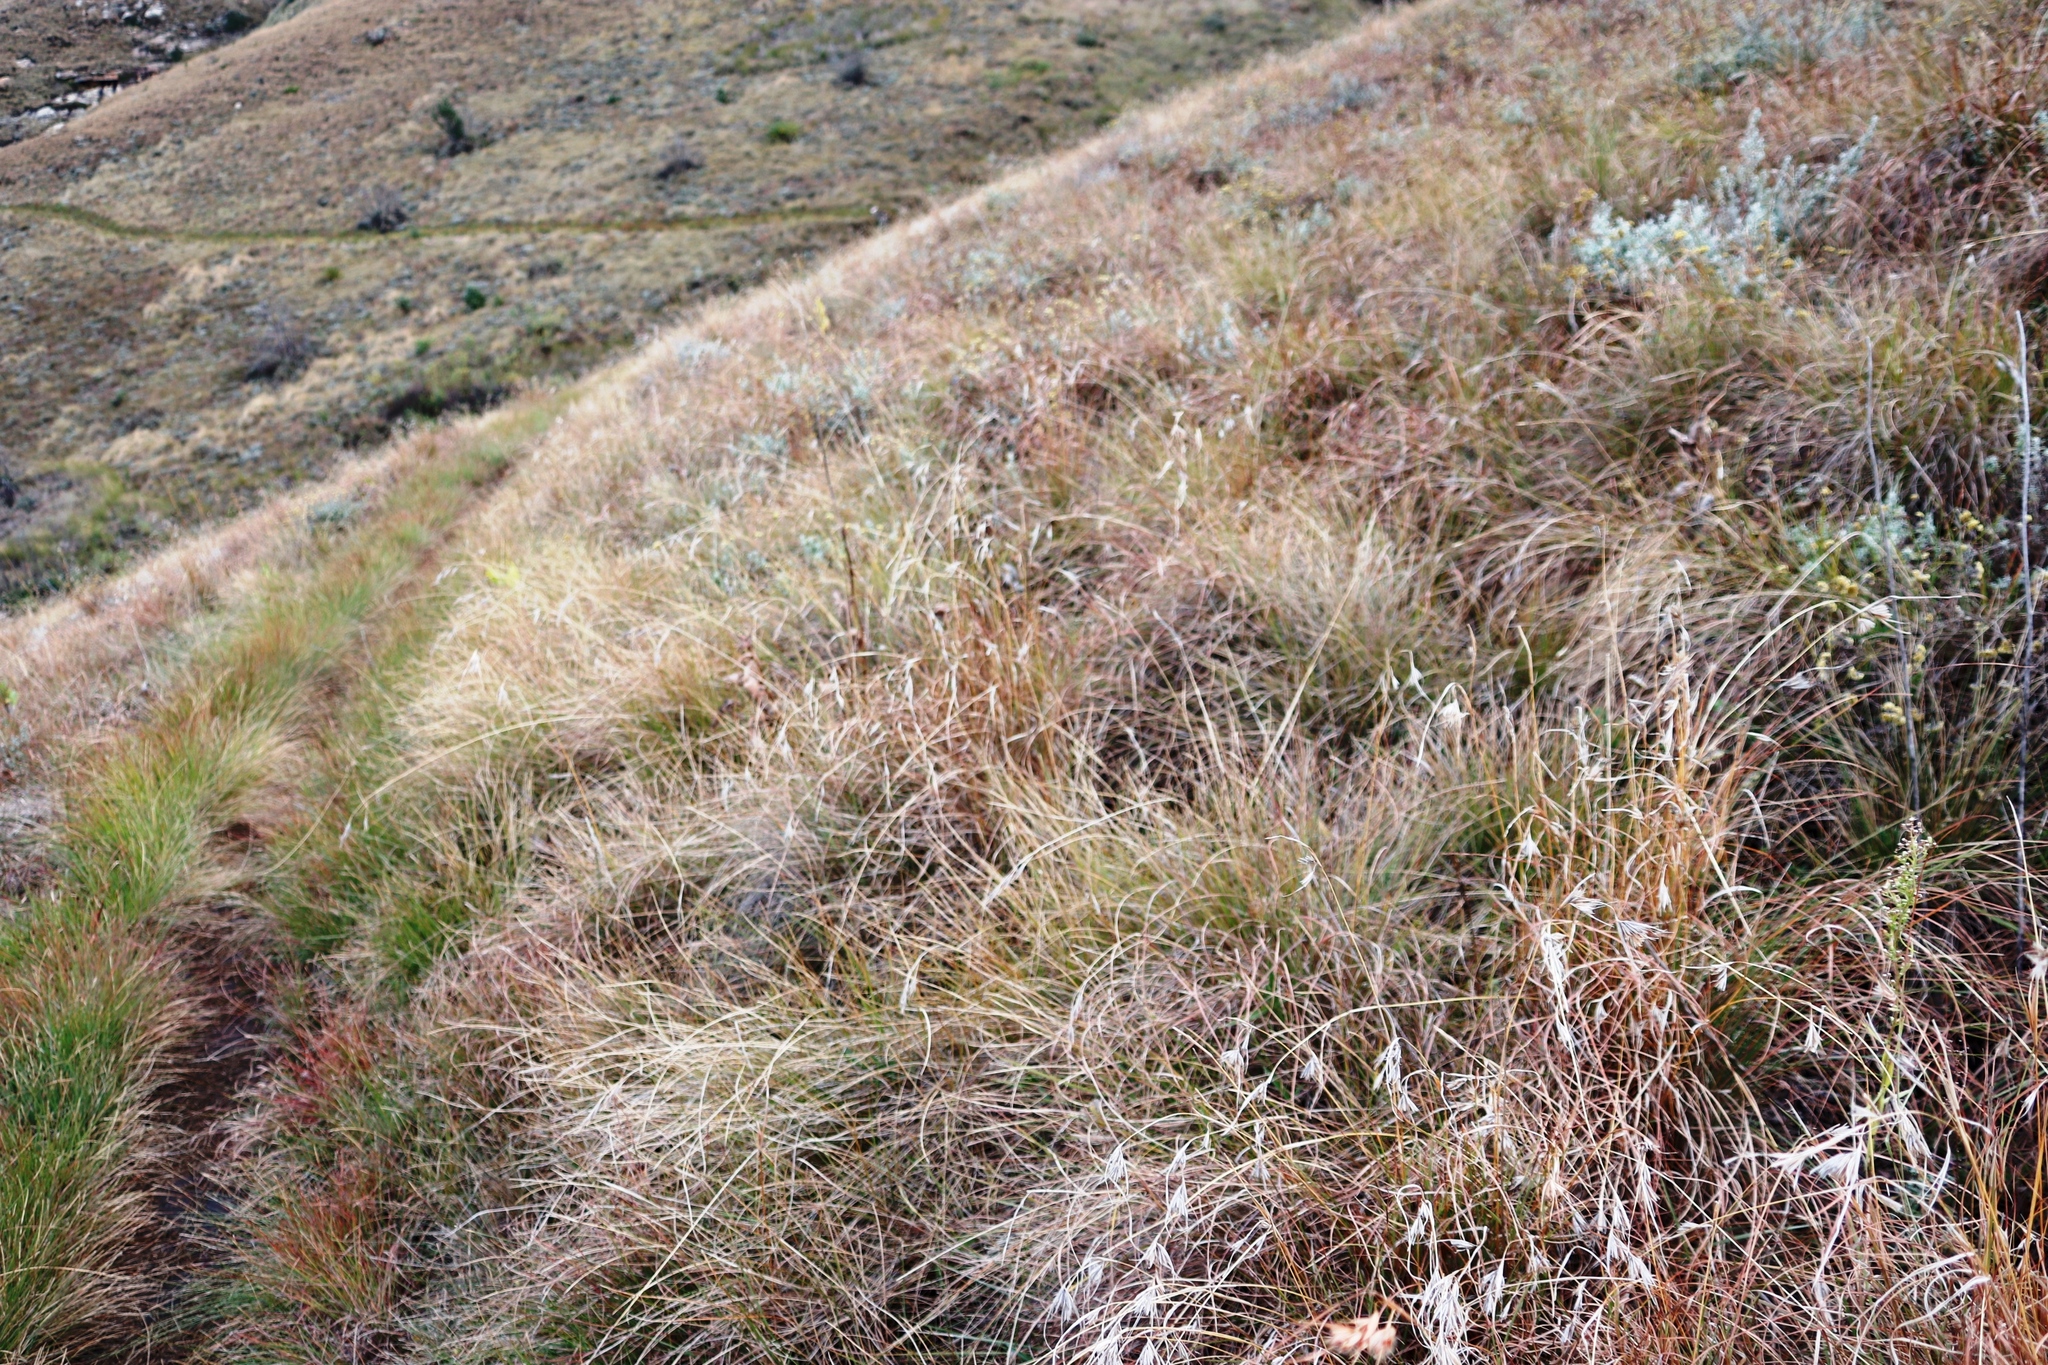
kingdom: Plantae
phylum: Tracheophyta
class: Liliopsida
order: Poales
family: Poaceae
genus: Themeda
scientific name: Themeda triandra
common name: Kangaroo grass
